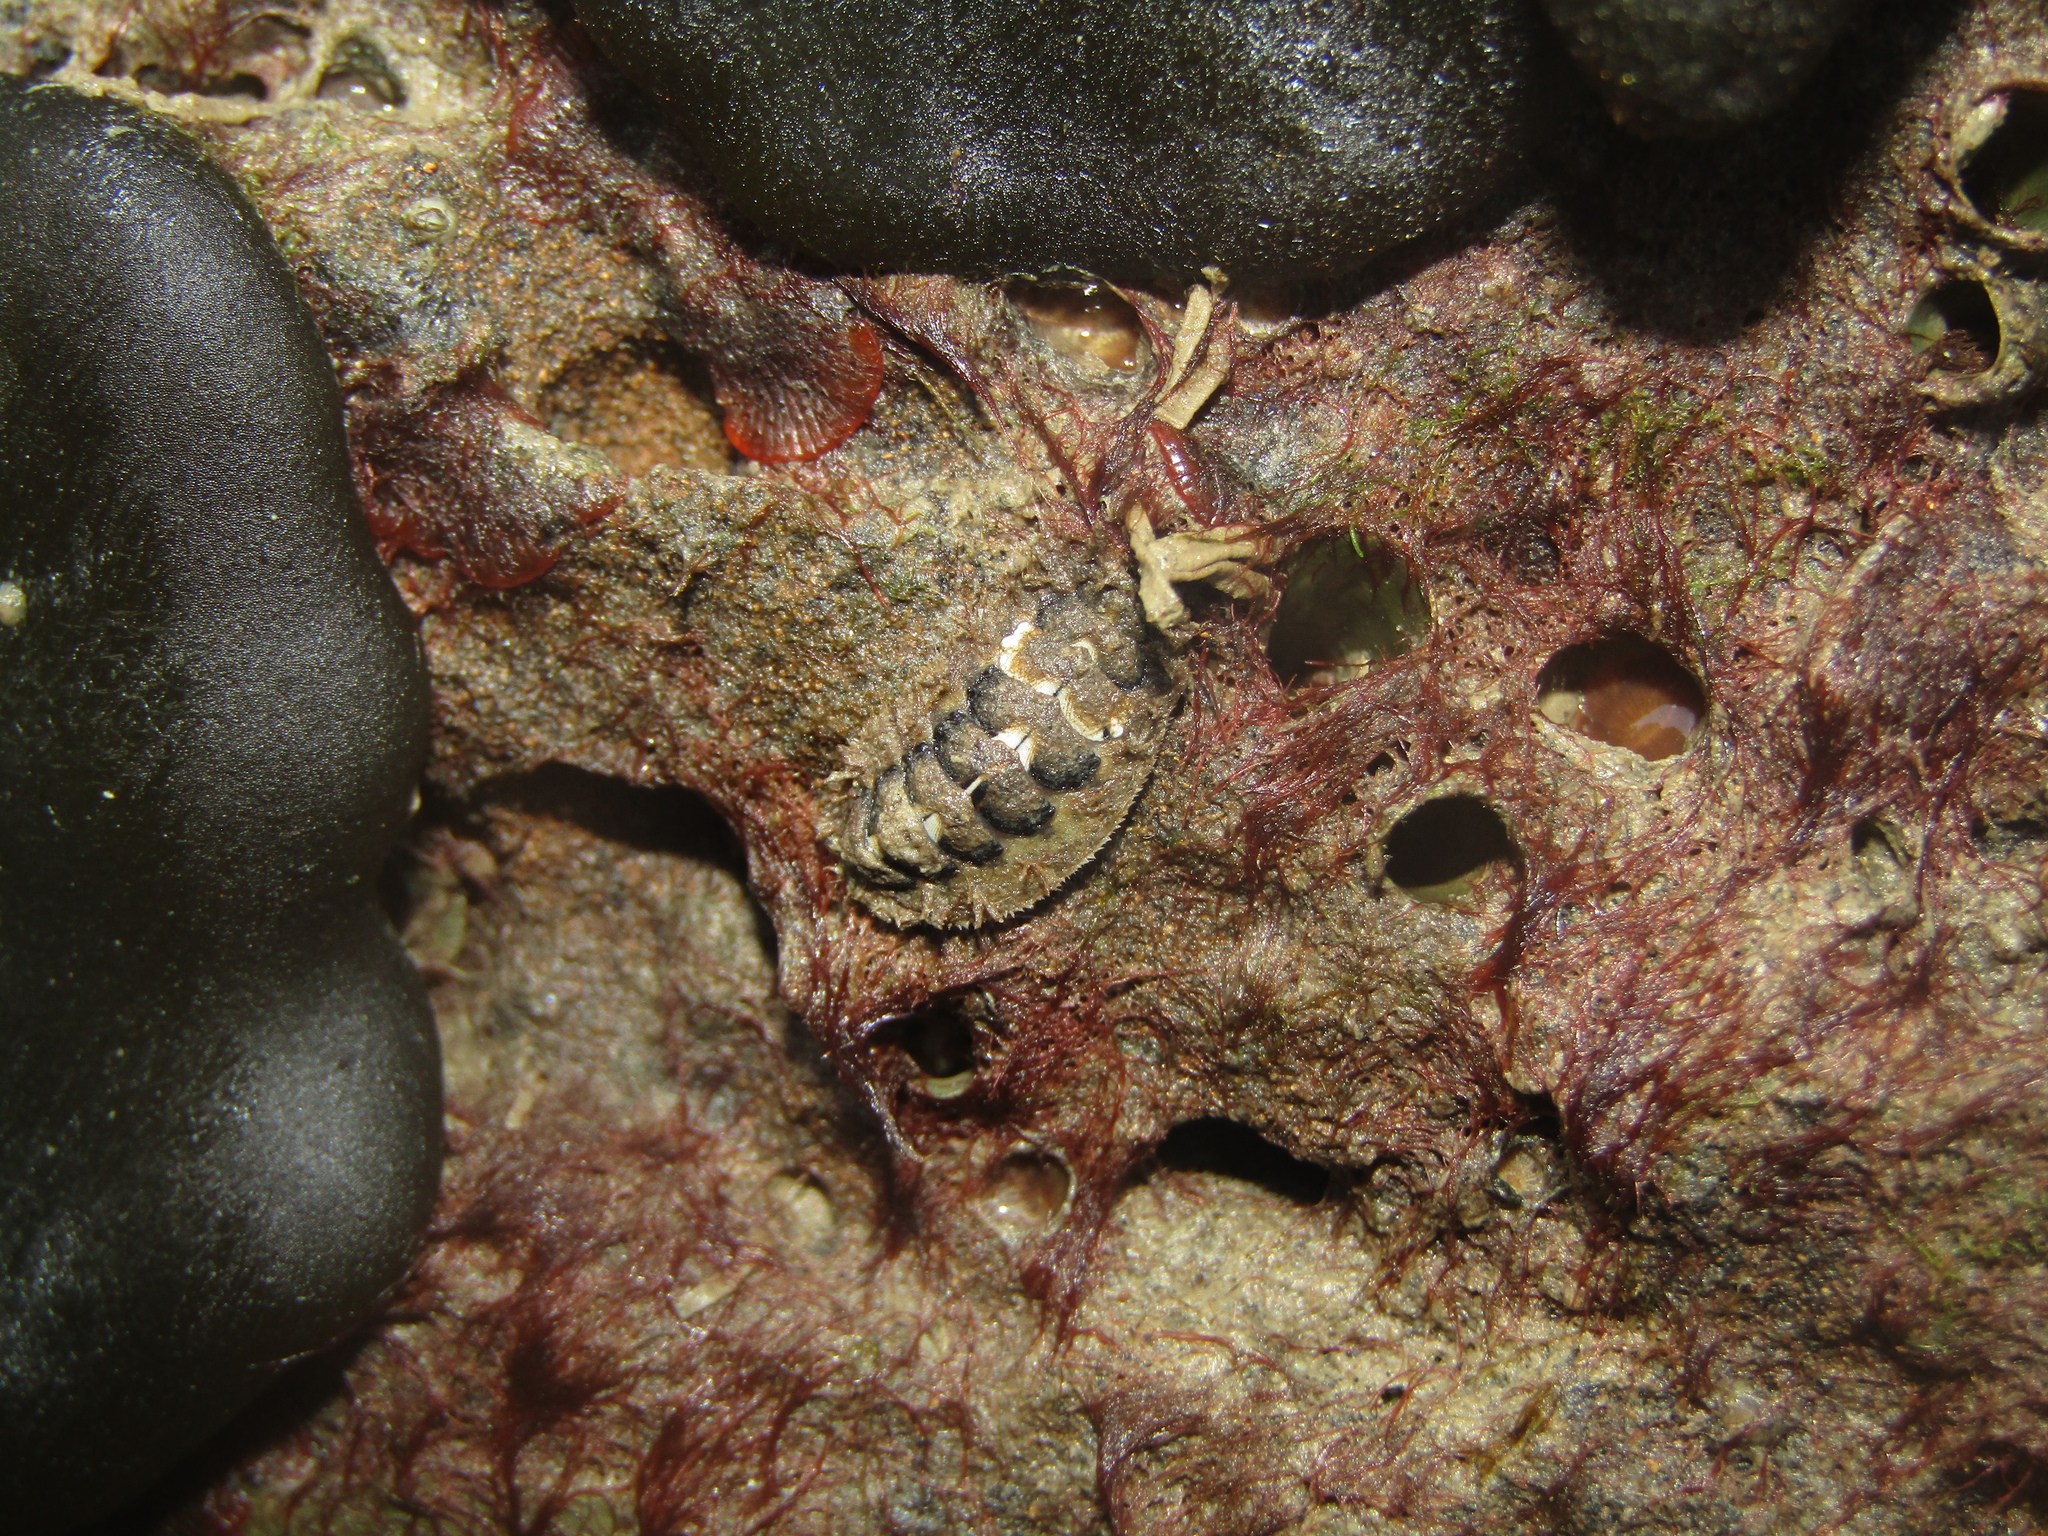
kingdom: Animalia
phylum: Mollusca
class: Polyplacophora
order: Chitonida
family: Mopaliidae
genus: Plaxiphora
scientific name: Plaxiphora caelata
